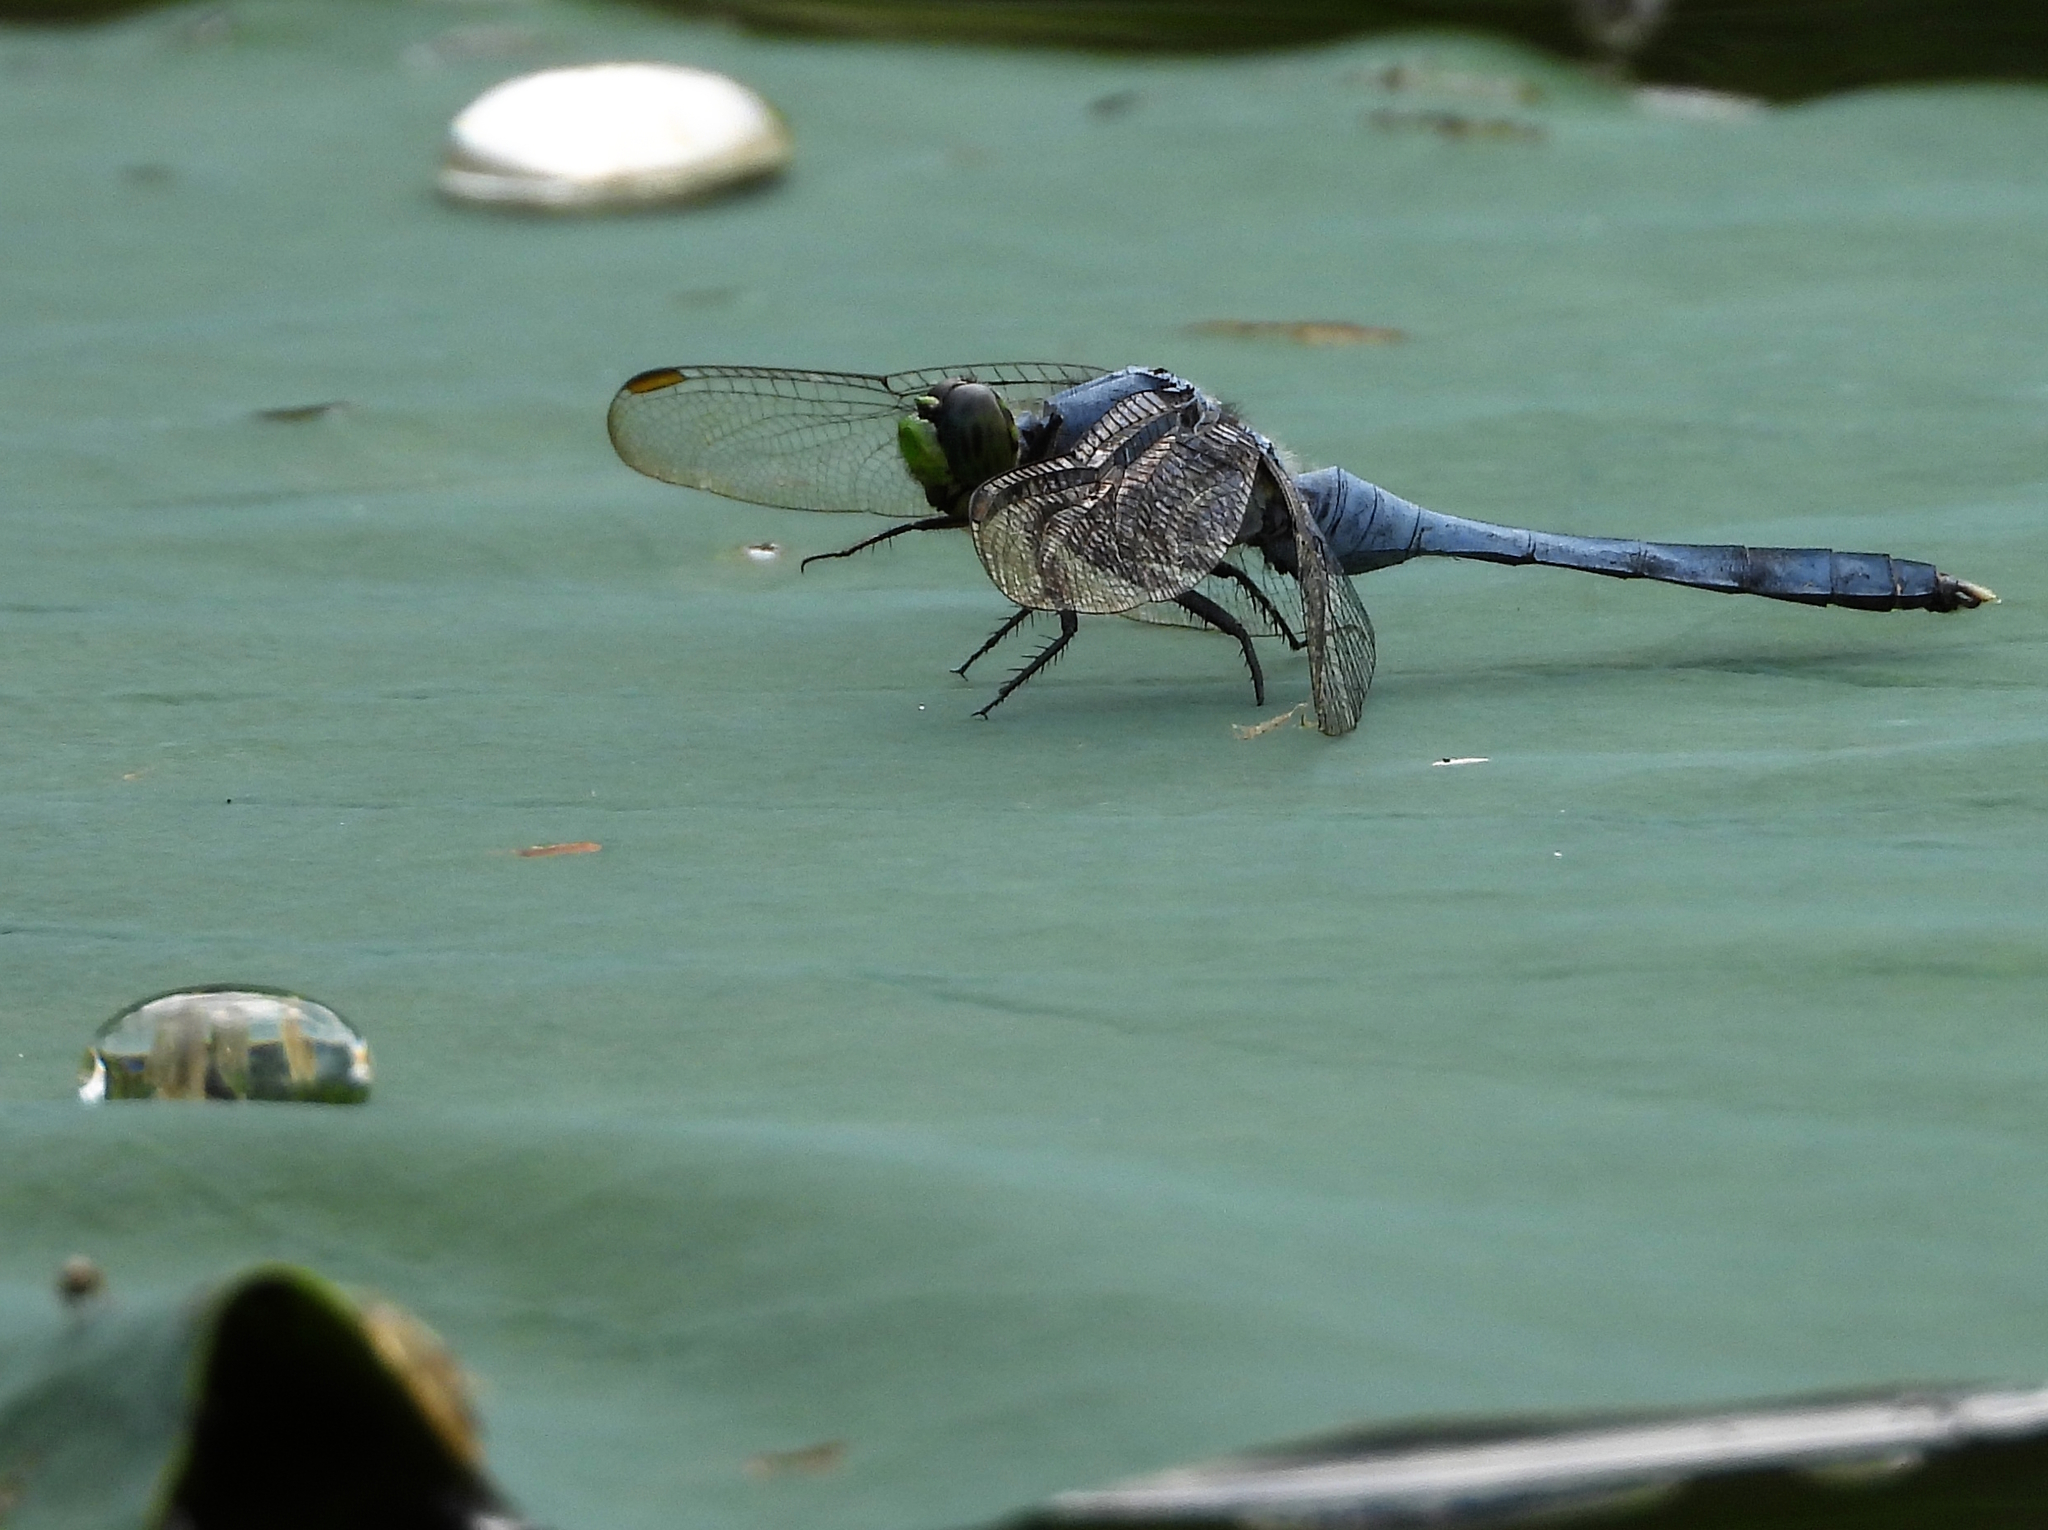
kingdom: Animalia
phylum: Arthropoda
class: Insecta
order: Odonata
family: Libellulidae
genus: Erythemis
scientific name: Erythemis simplicicollis
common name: Eastern pondhawk
